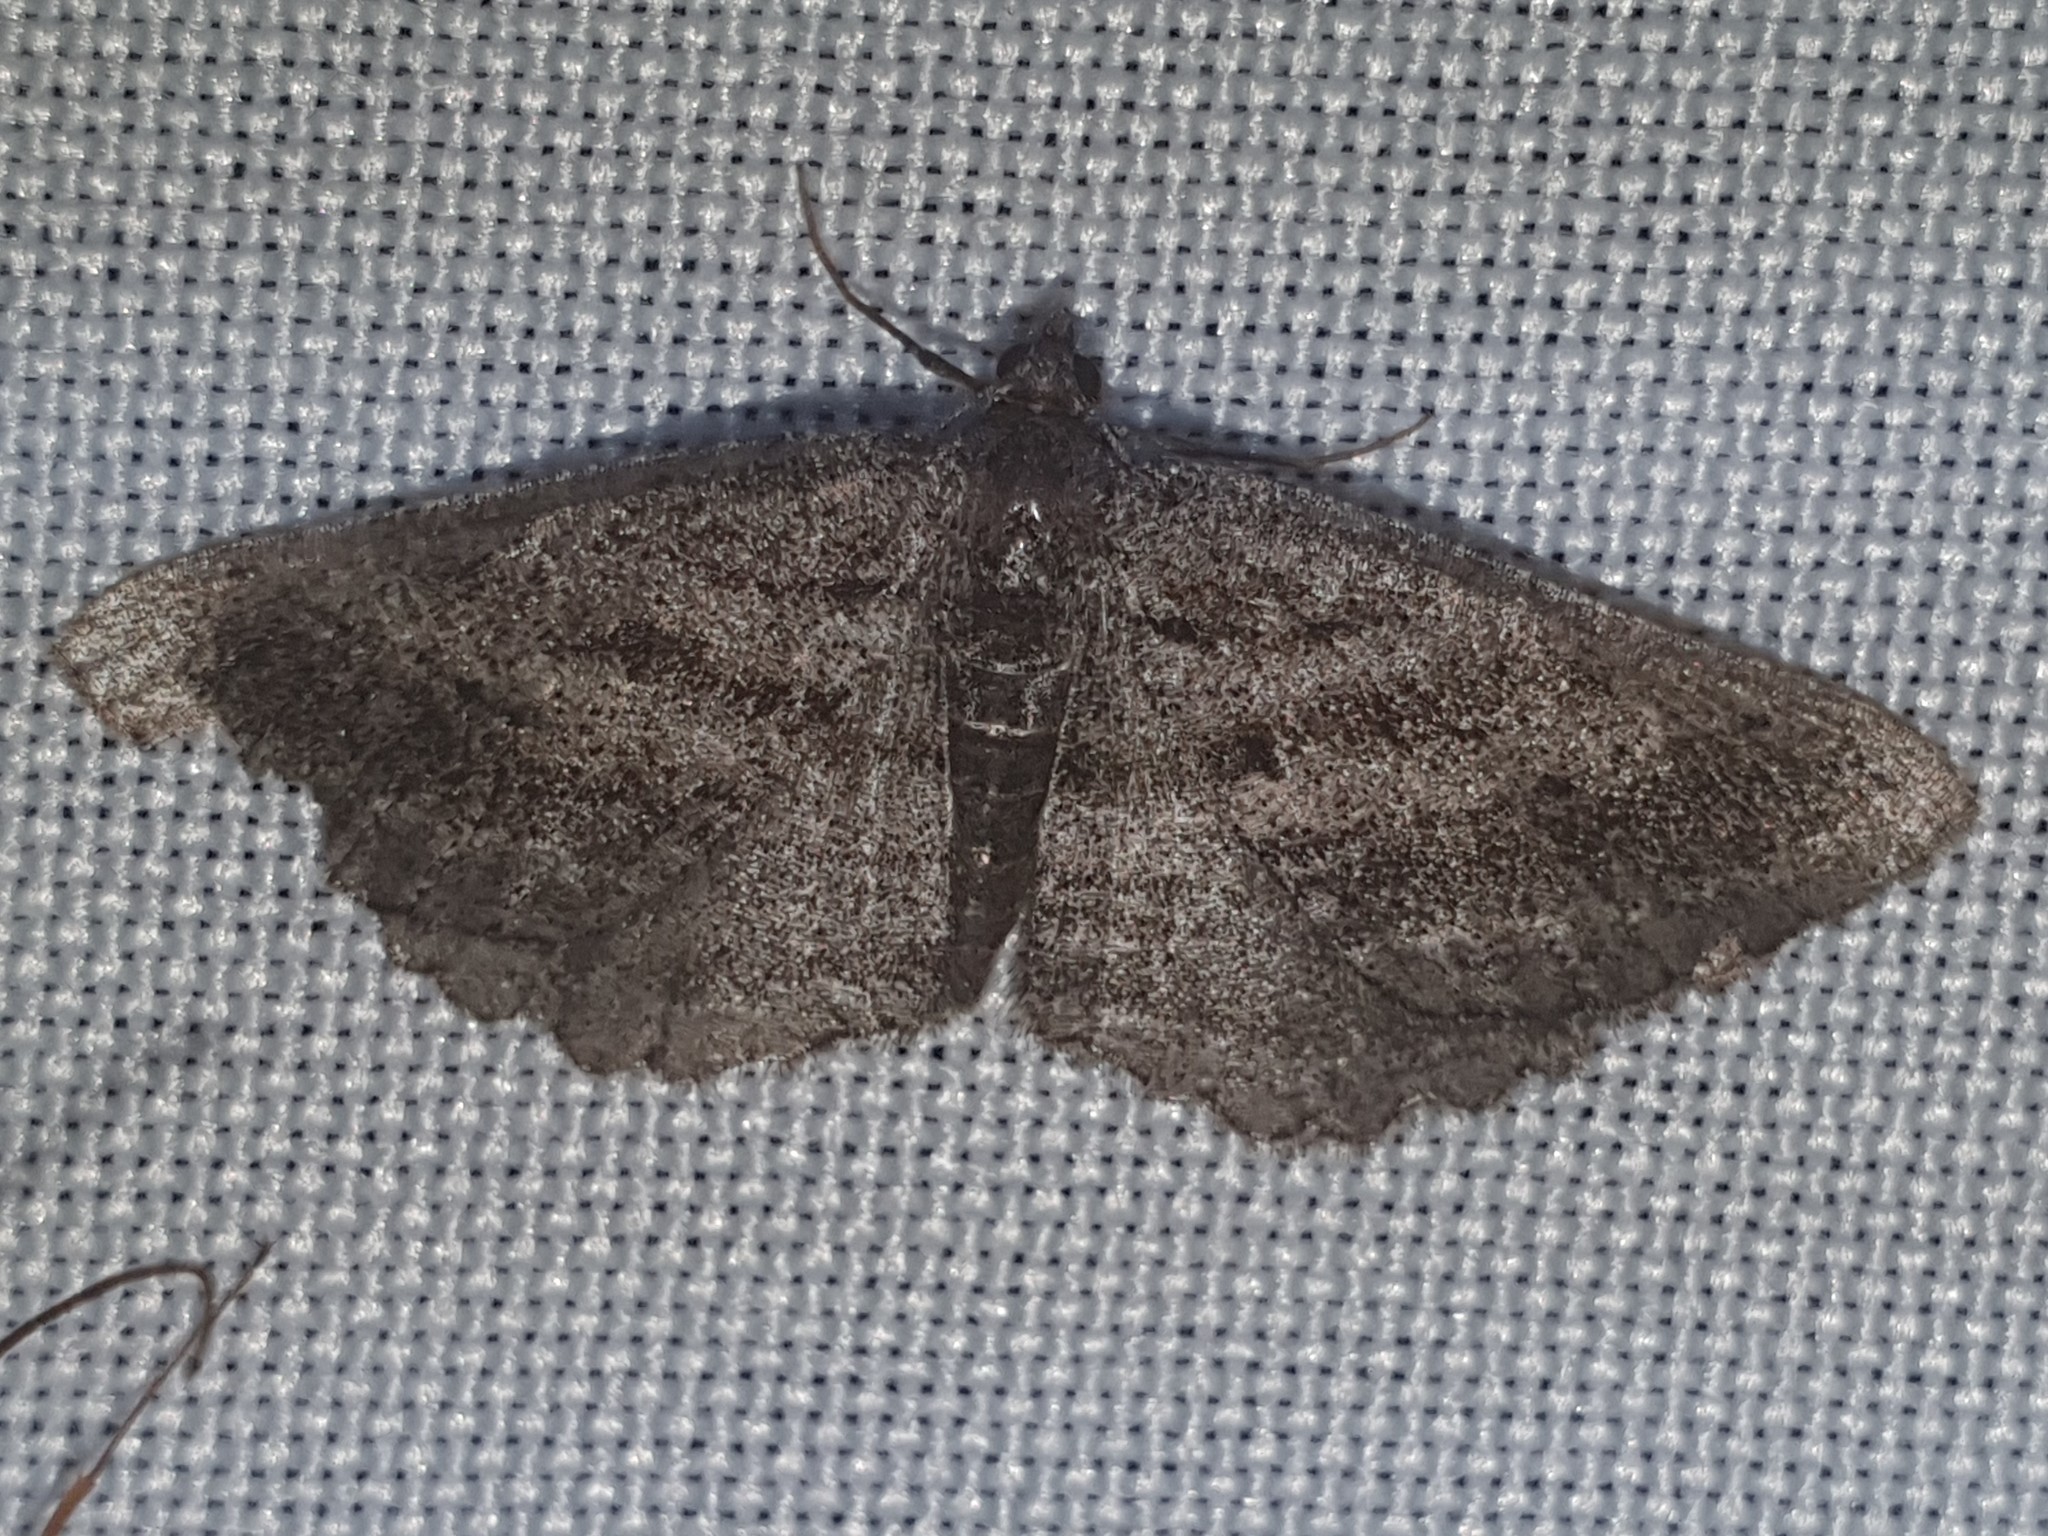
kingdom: Animalia
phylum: Arthropoda
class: Insecta
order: Lepidoptera
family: Geometridae
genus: Rhoptria
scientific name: Rhoptria asperaria
